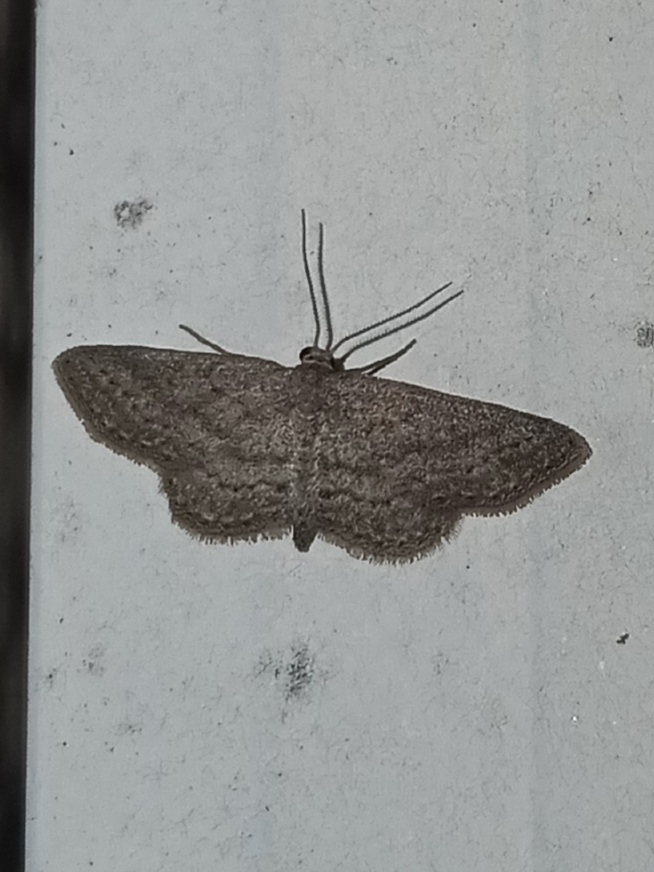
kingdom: Animalia
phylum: Arthropoda
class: Insecta
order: Lepidoptera
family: Geometridae
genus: Lobocleta
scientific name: Lobocleta ossularia
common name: Drab brown wave
